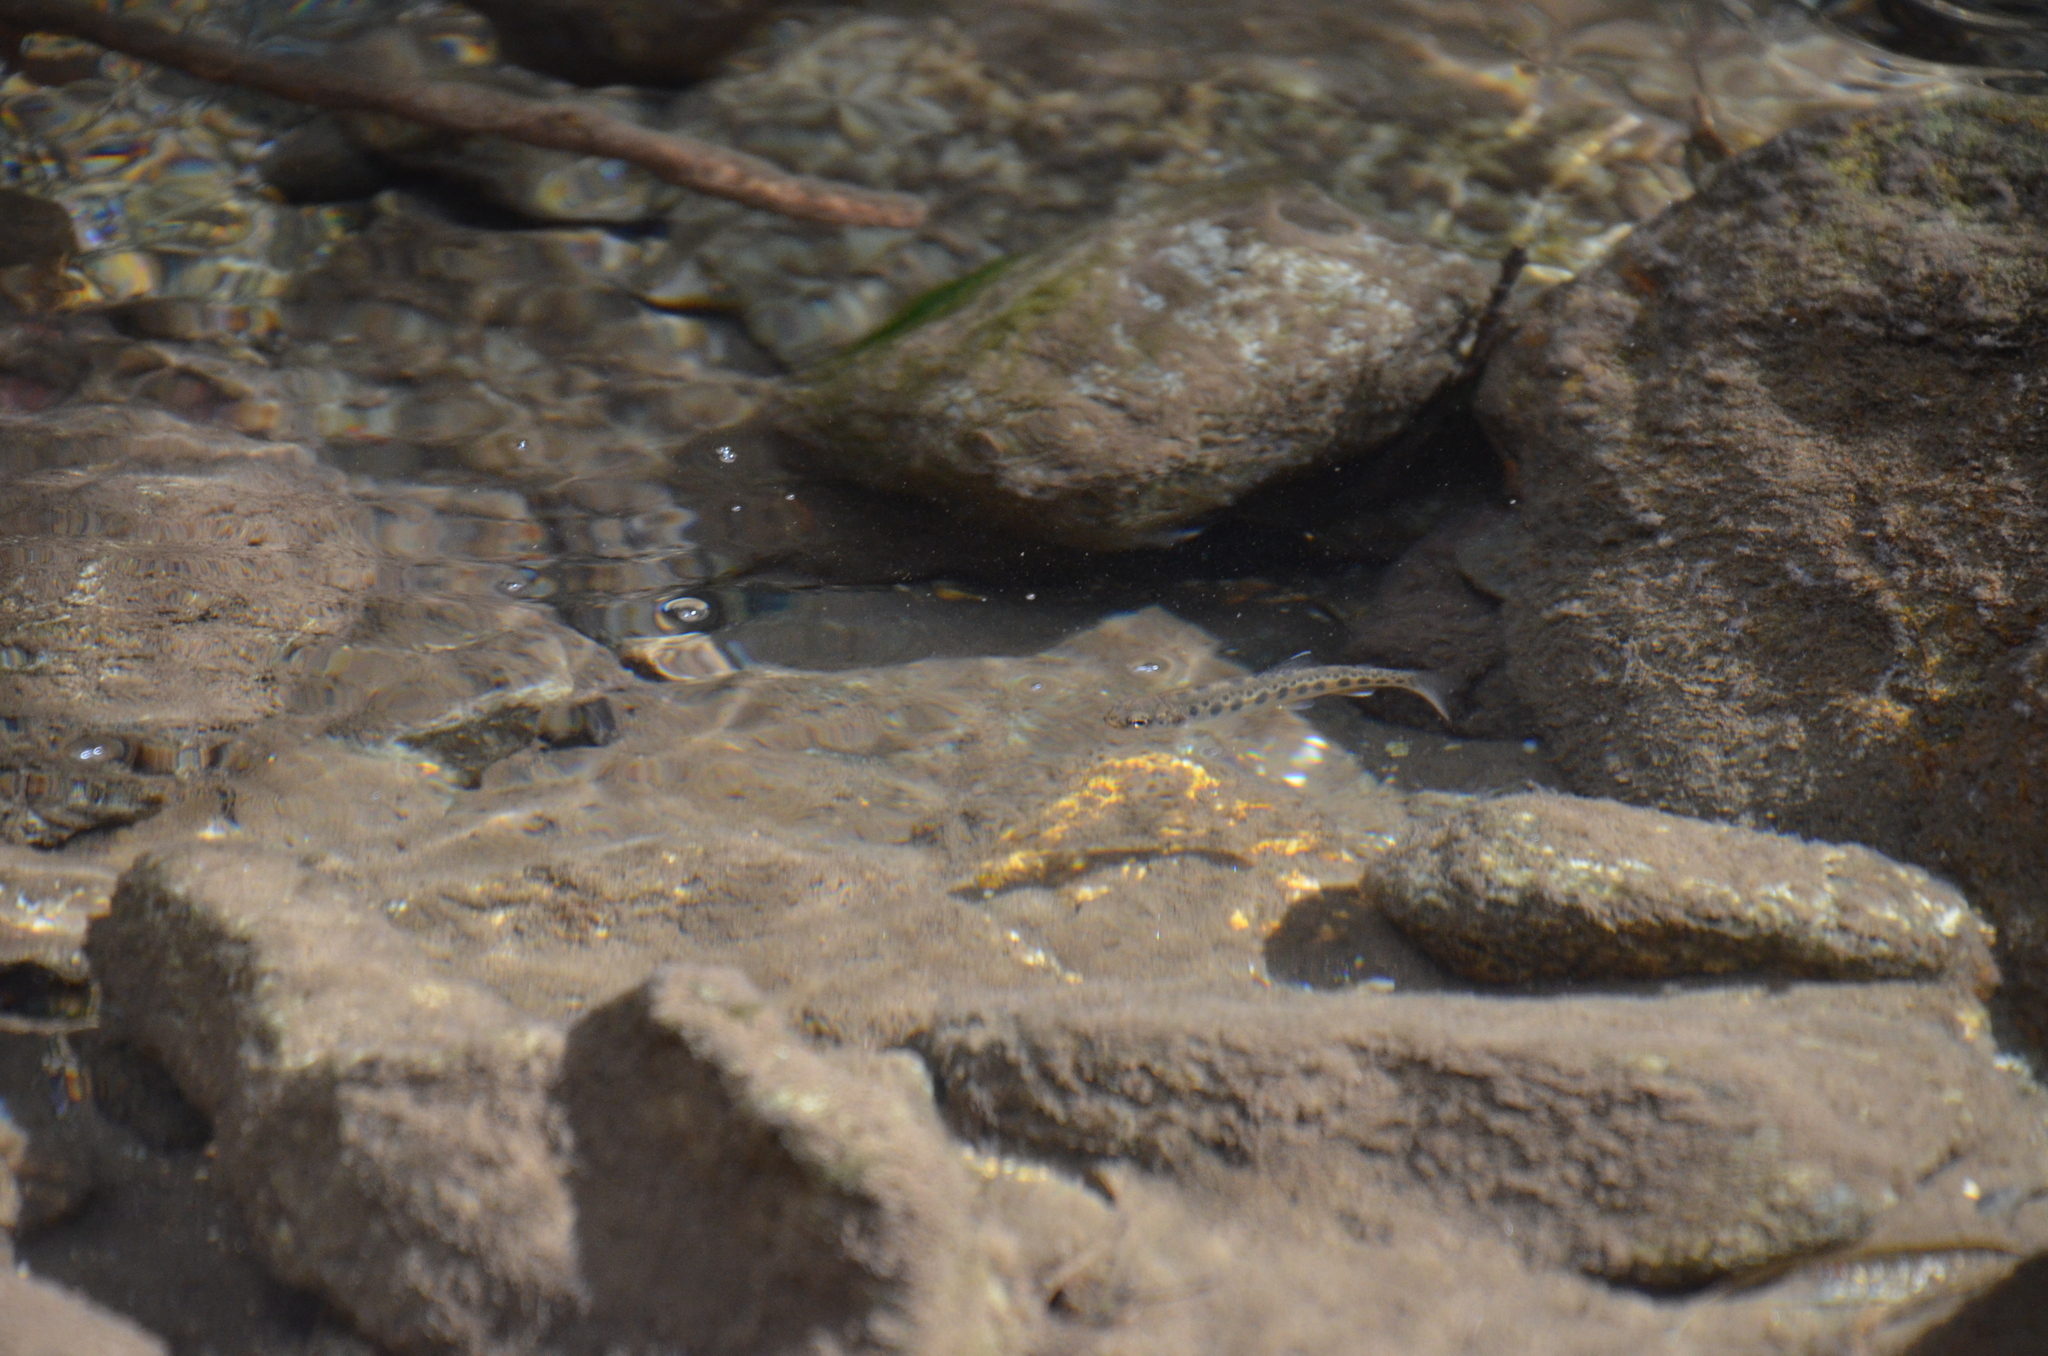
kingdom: Animalia
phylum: Chordata
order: Salmoniformes
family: Salmonidae
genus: Oncorhynchus
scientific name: Oncorhynchus mykiss
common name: Rainbow trout
